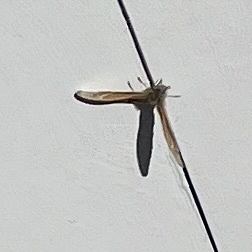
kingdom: Animalia
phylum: Arthropoda
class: Insecta
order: Lepidoptera
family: Nymphalidae
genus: Coenonympha
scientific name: Coenonympha california
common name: Common ringlet
